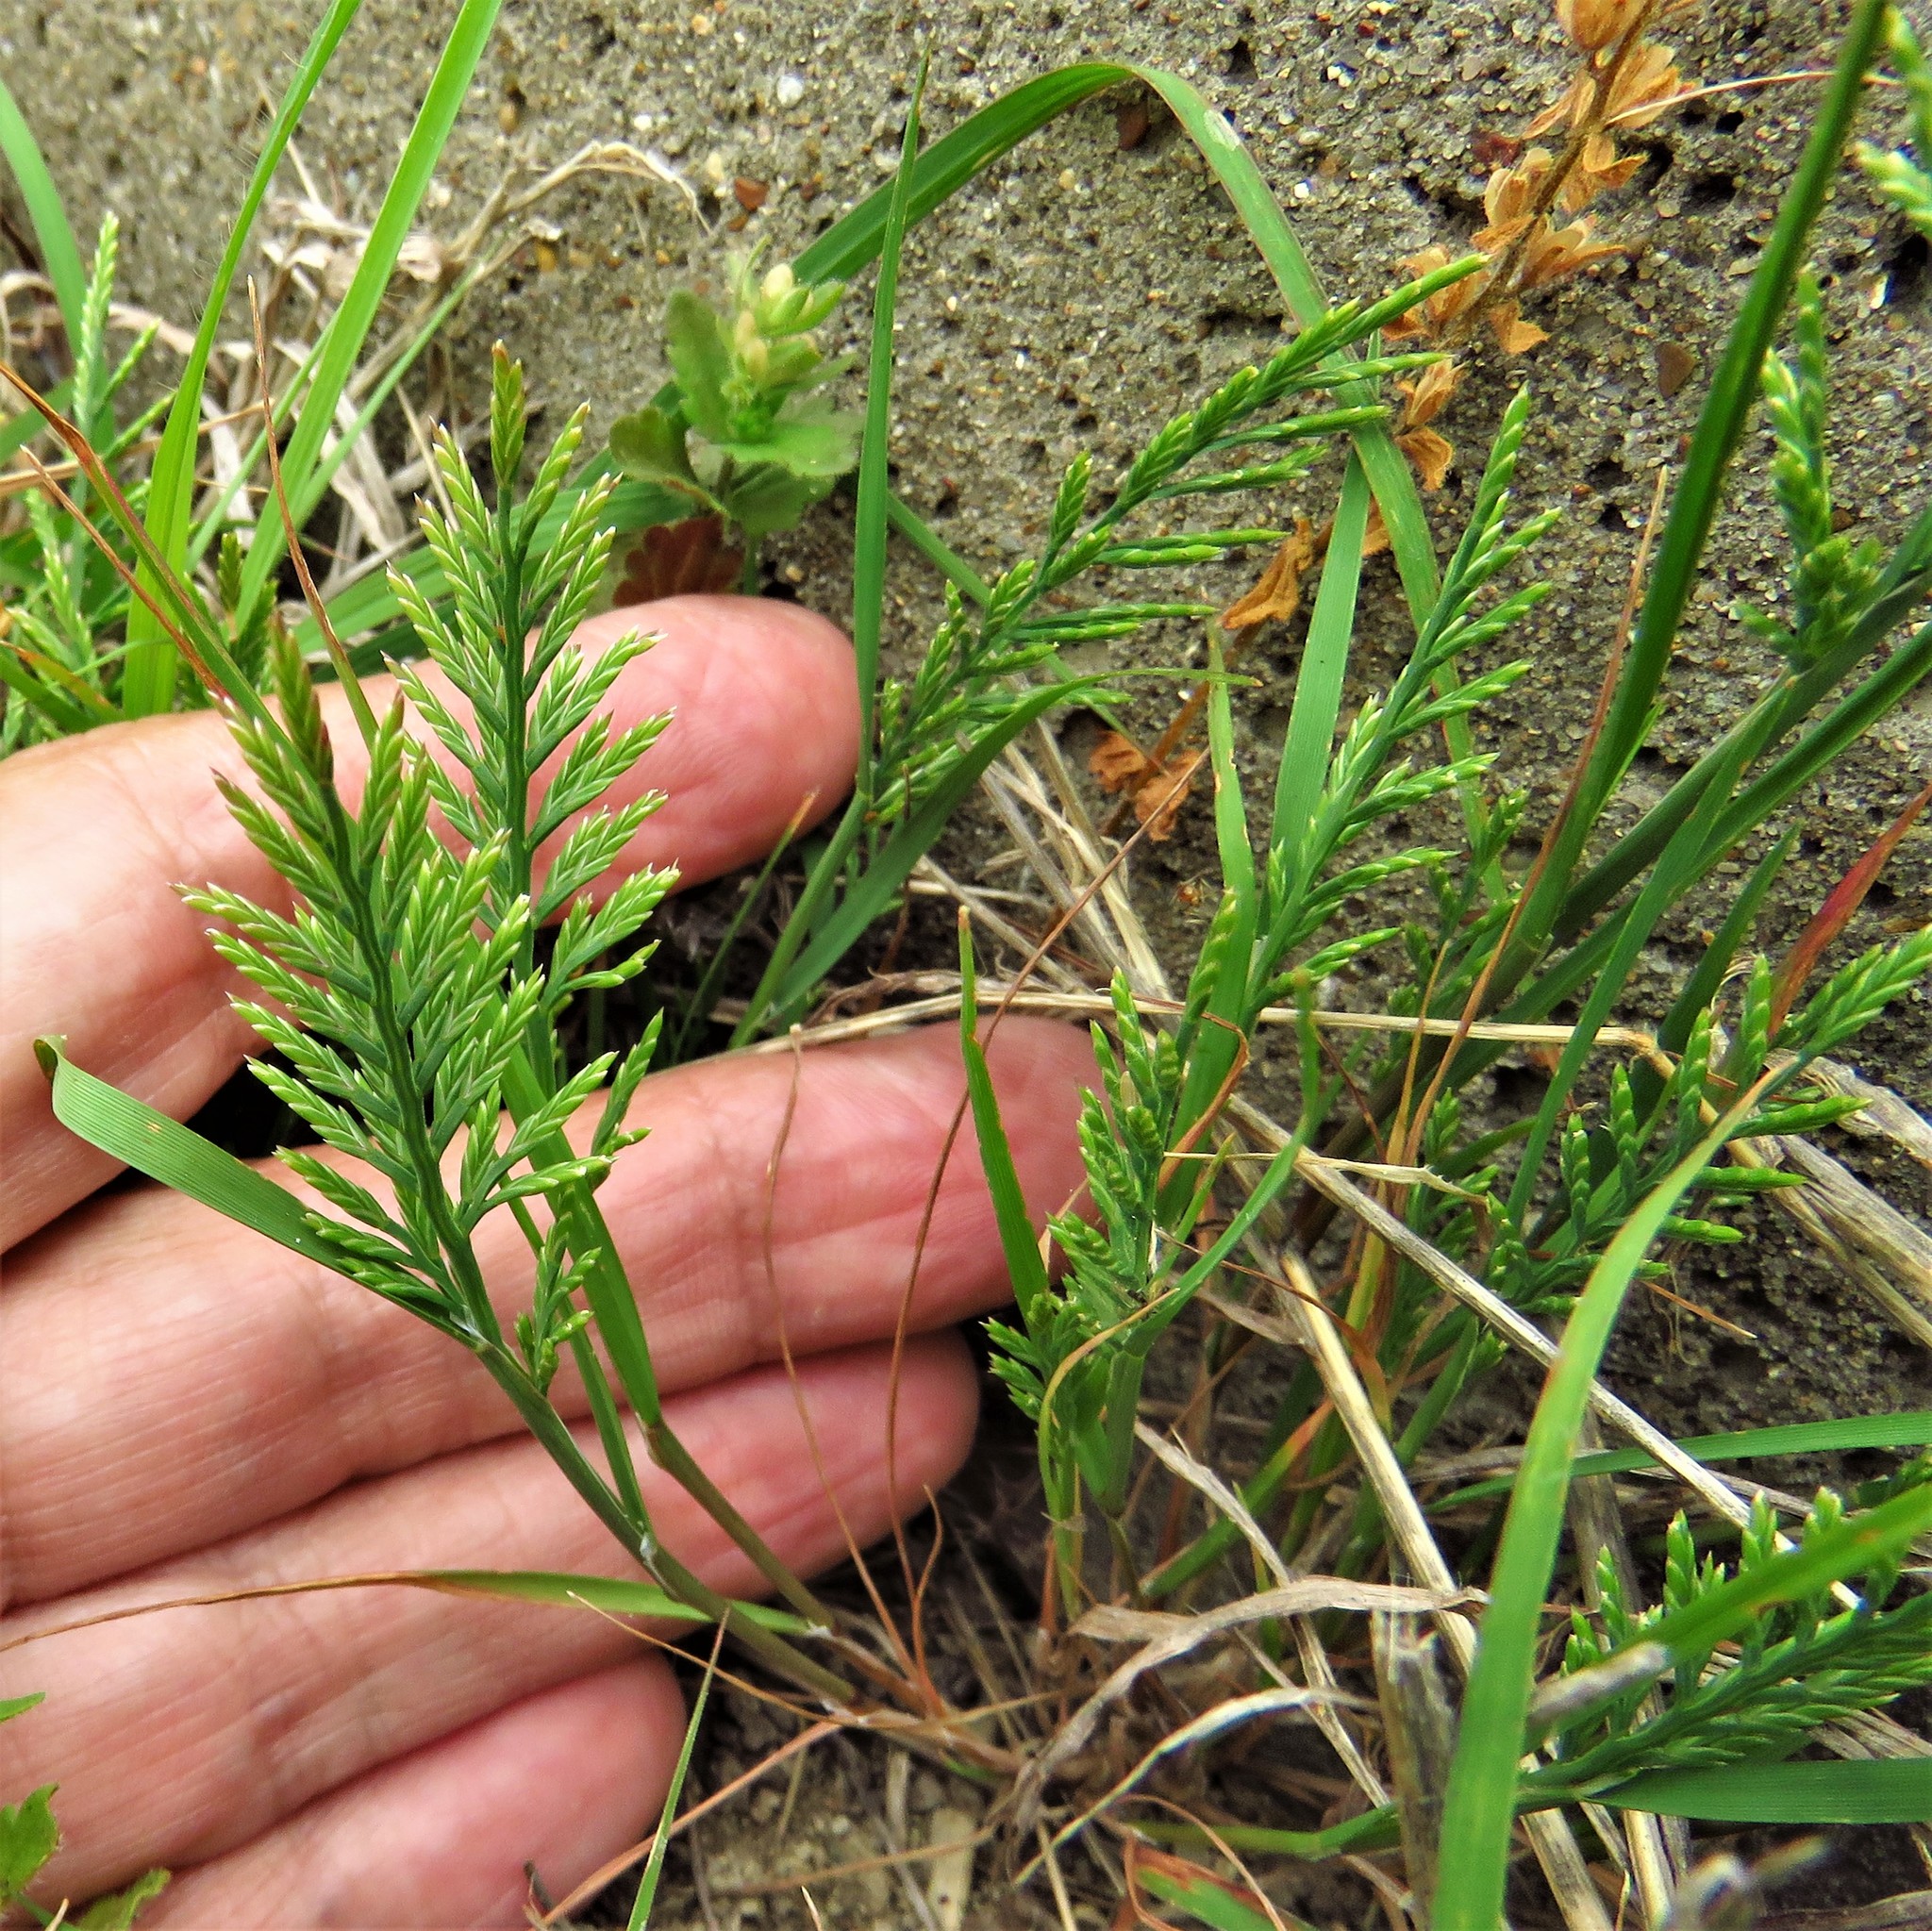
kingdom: Plantae
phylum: Tracheophyta
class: Liliopsida
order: Poales
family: Poaceae
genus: Catapodium
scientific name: Catapodium rigidum
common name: Fern-grass
